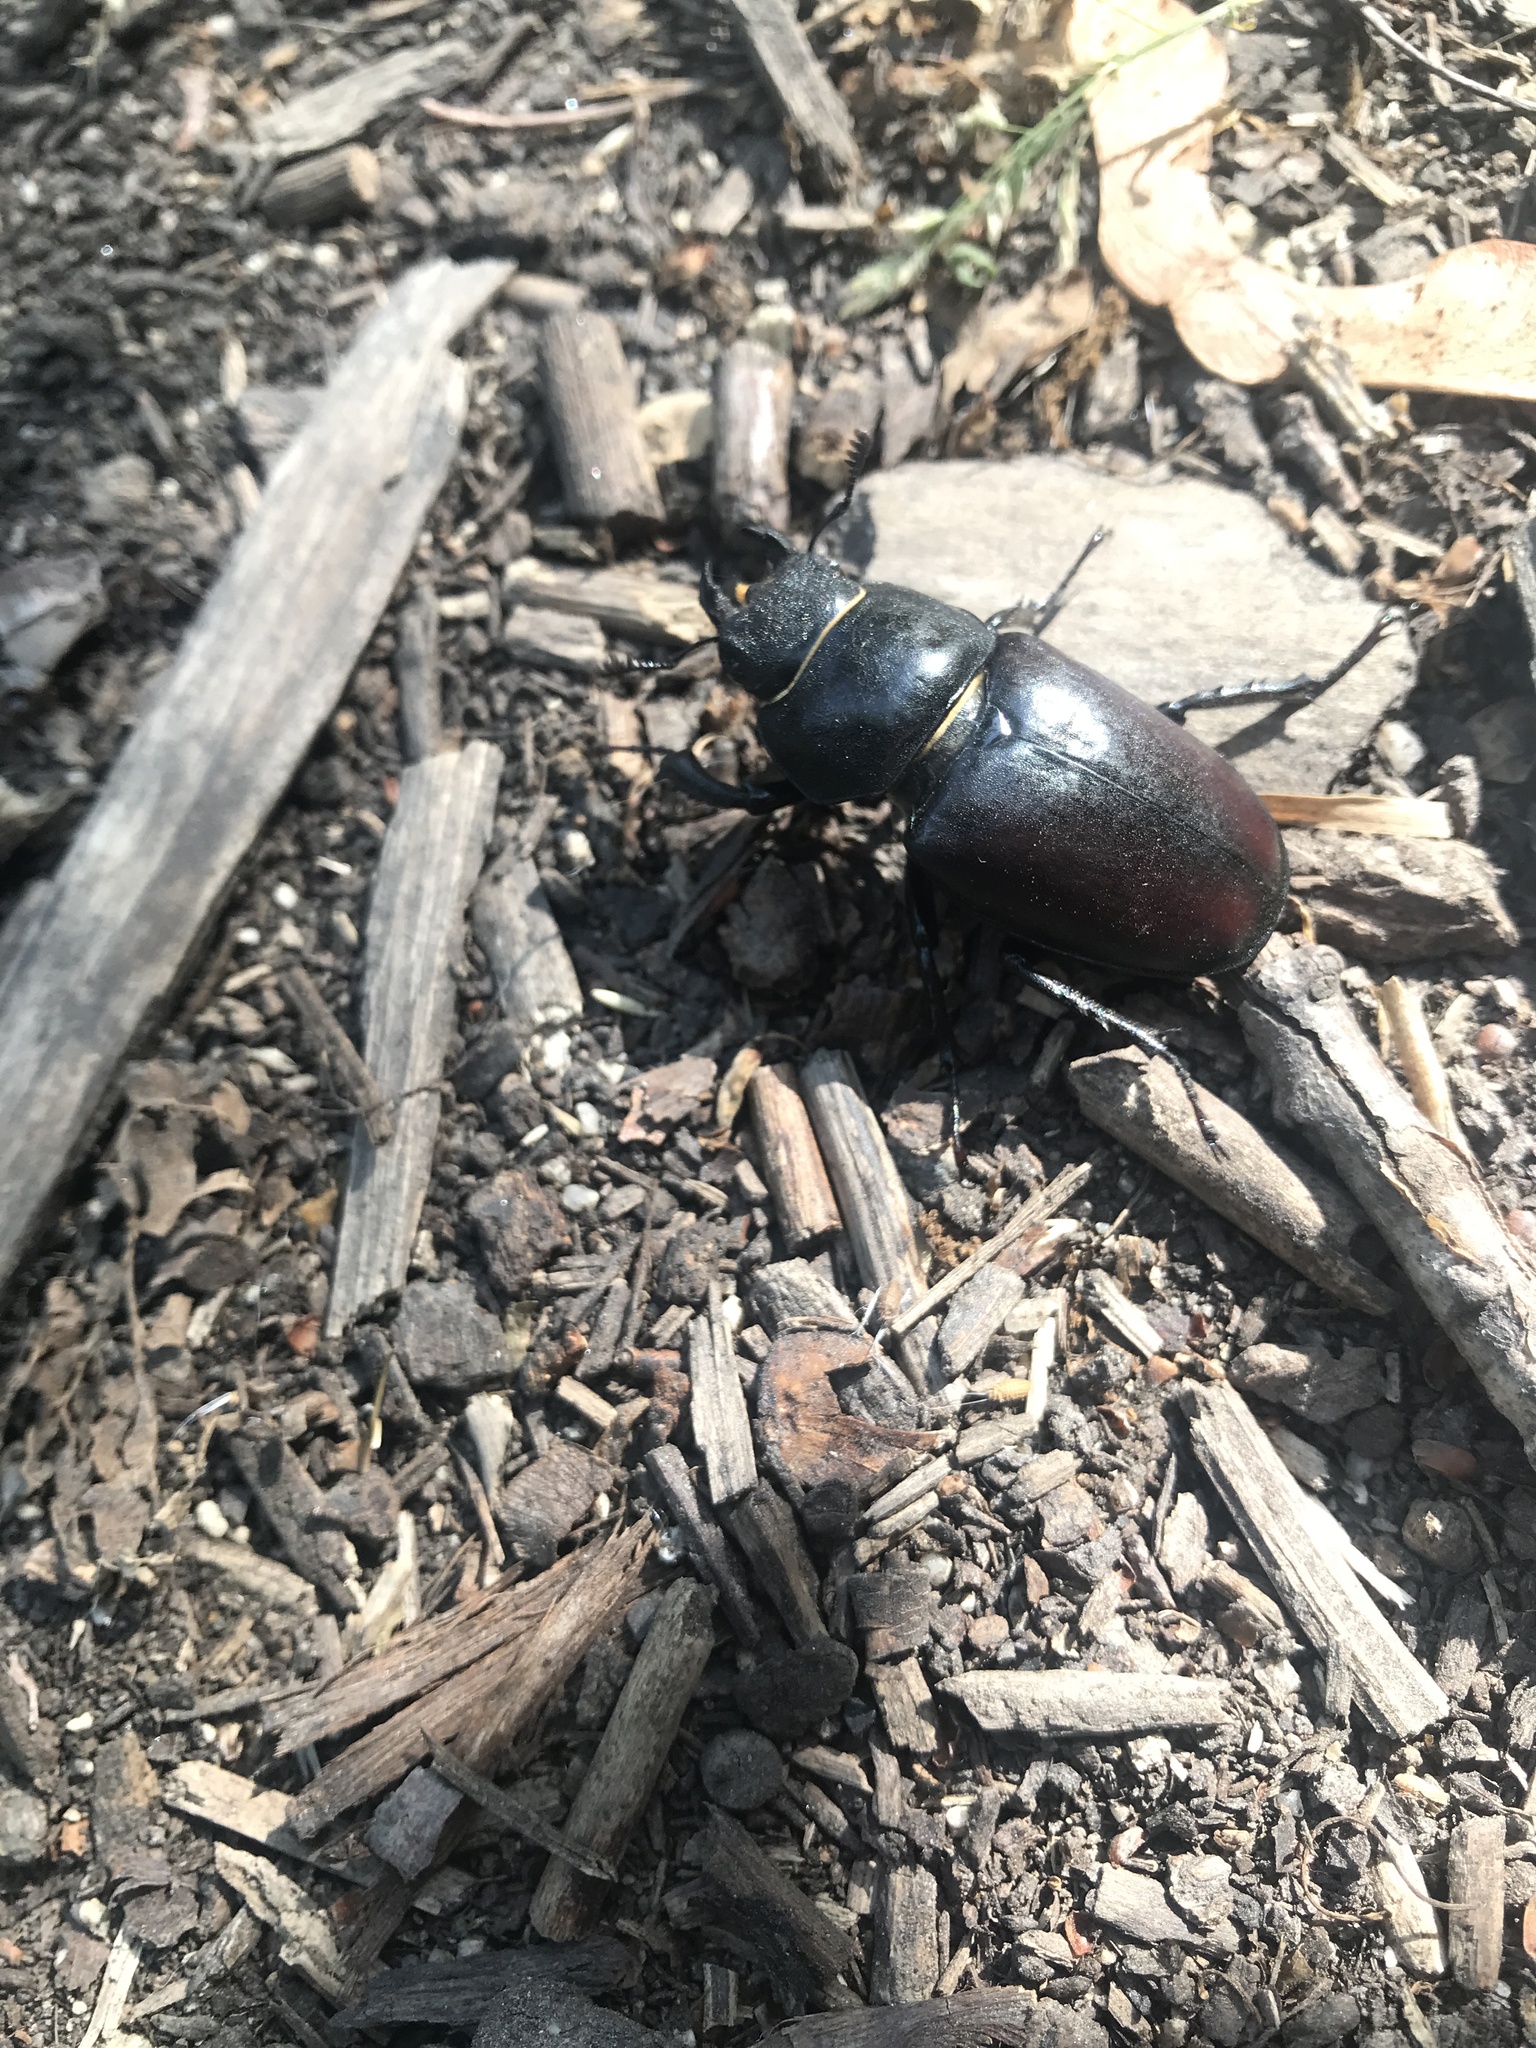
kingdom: Animalia
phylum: Arthropoda
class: Insecta
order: Coleoptera
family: Lucanidae
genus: Lucanus
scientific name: Lucanus cervus
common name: Stag beetle
